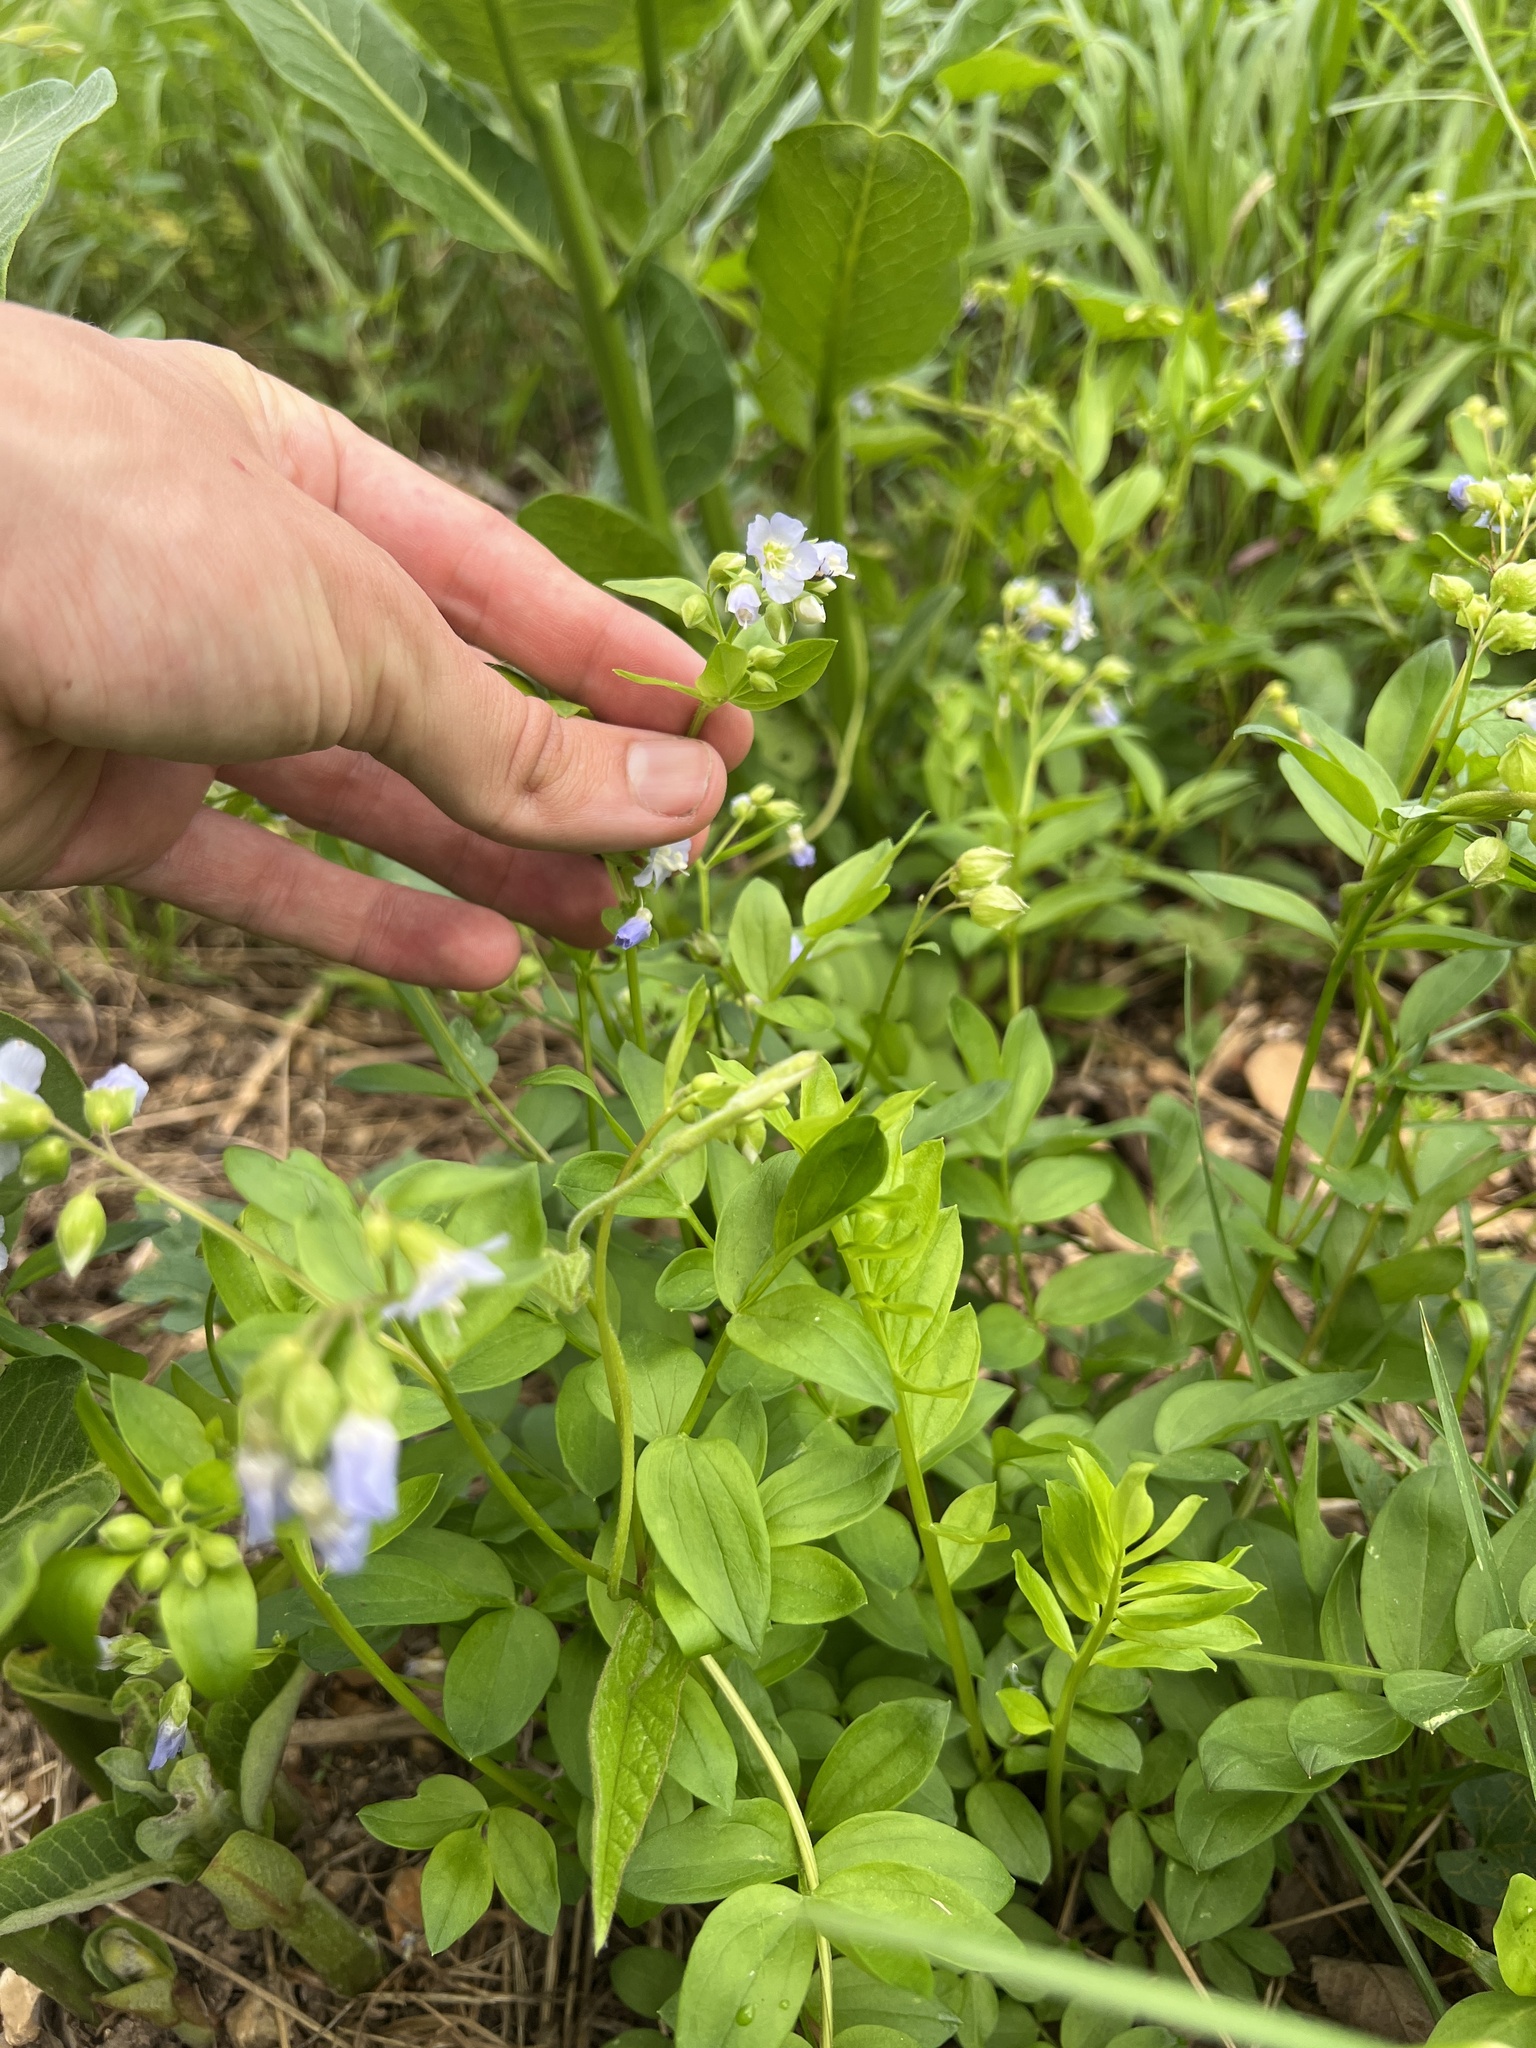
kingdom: Plantae
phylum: Tracheophyta
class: Magnoliopsida
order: Ericales
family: Polemoniaceae
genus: Polemonium
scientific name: Polemonium reptans
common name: Creeping jacob's-ladder
